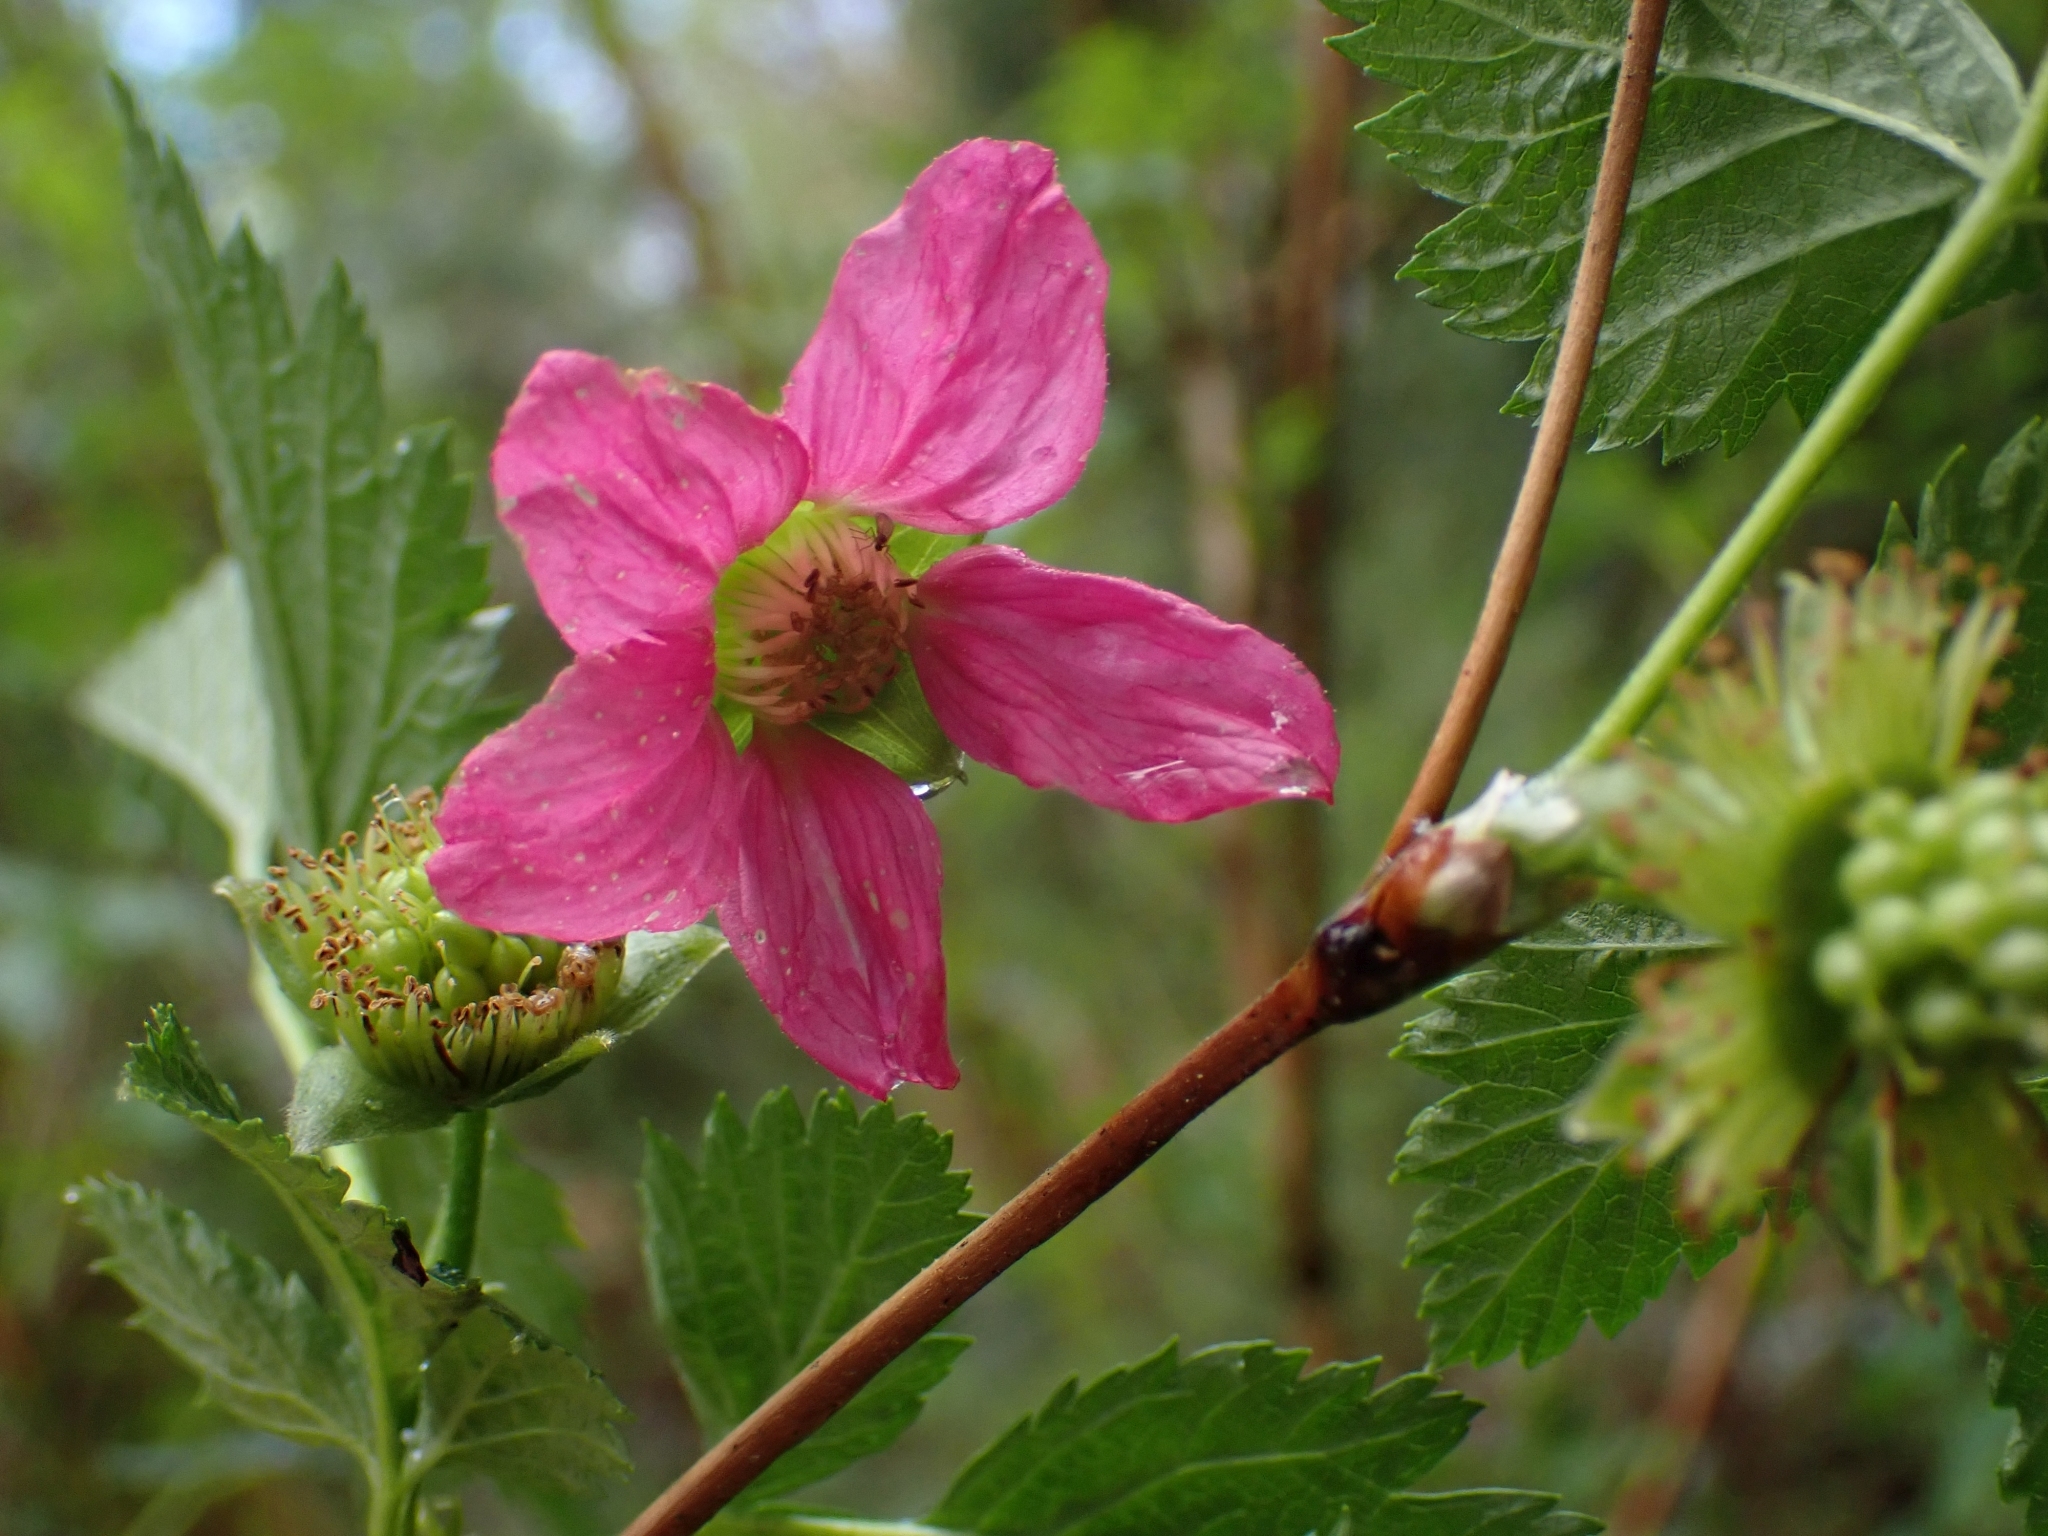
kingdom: Plantae
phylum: Tracheophyta
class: Magnoliopsida
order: Rosales
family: Rosaceae
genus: Rubus
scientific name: Rubus spectabilis
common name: Salmonberry
